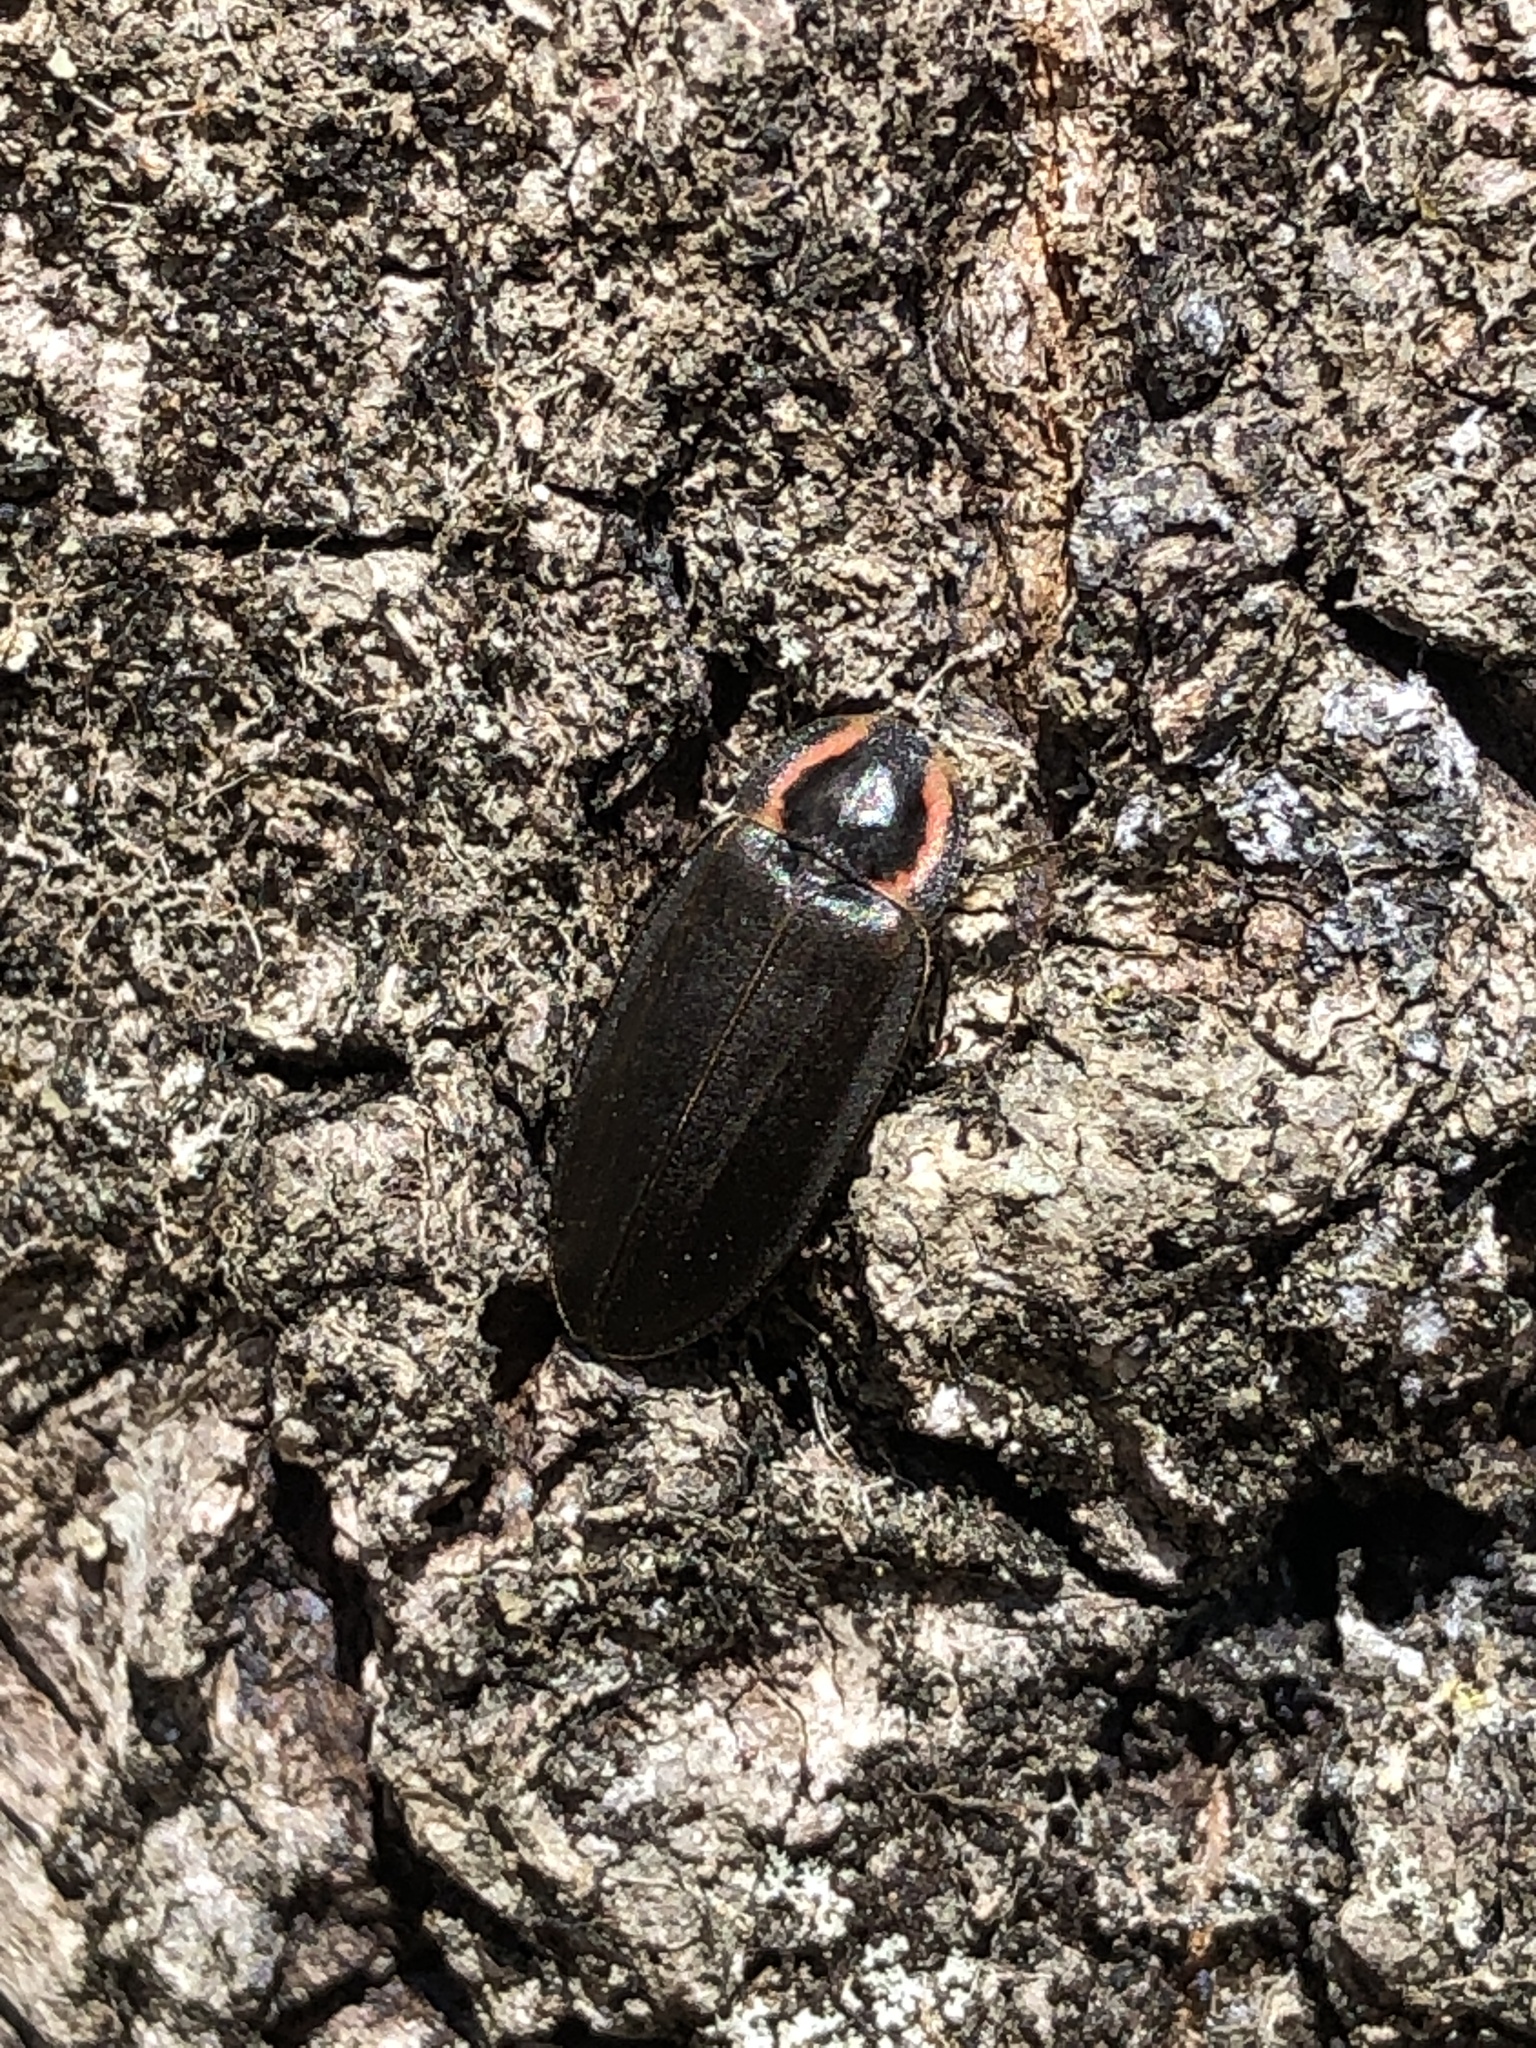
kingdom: Animalia
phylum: Arthropoda
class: Insecta
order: Coleoptera
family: Lampyridae
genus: Photinus
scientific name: Photinus corrusca
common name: Winter firefly
